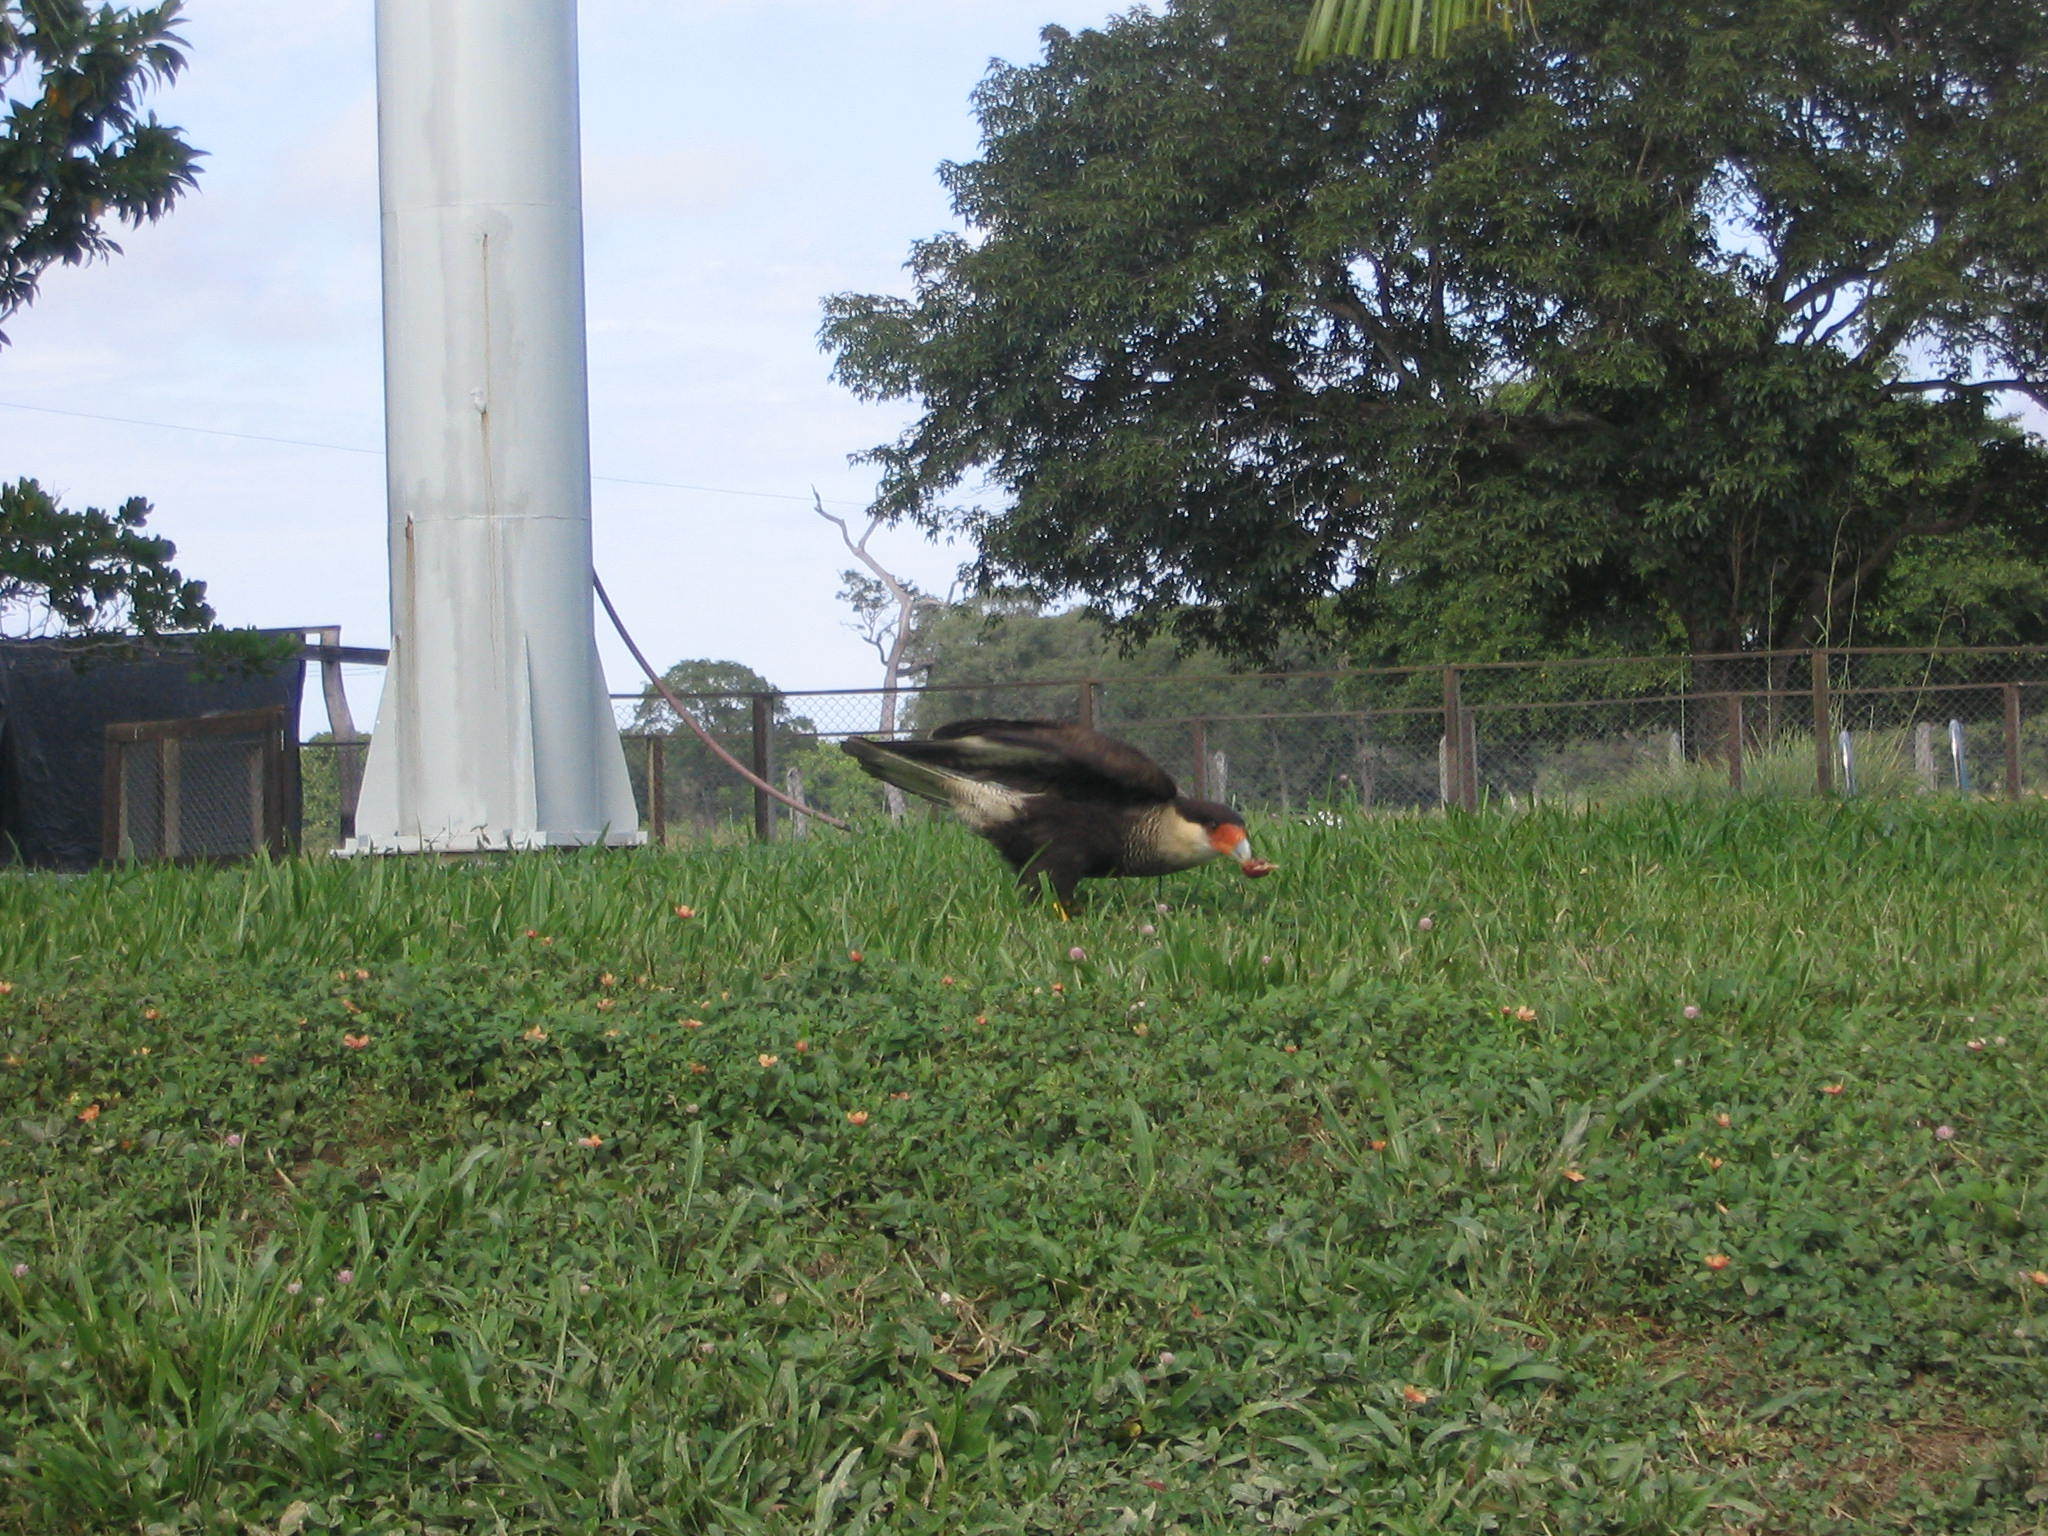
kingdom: Animalia
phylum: Chordata
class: Aves
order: Falconiformes
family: Falconidae
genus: Caracara
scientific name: Caracara plancus
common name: Southern caracara
